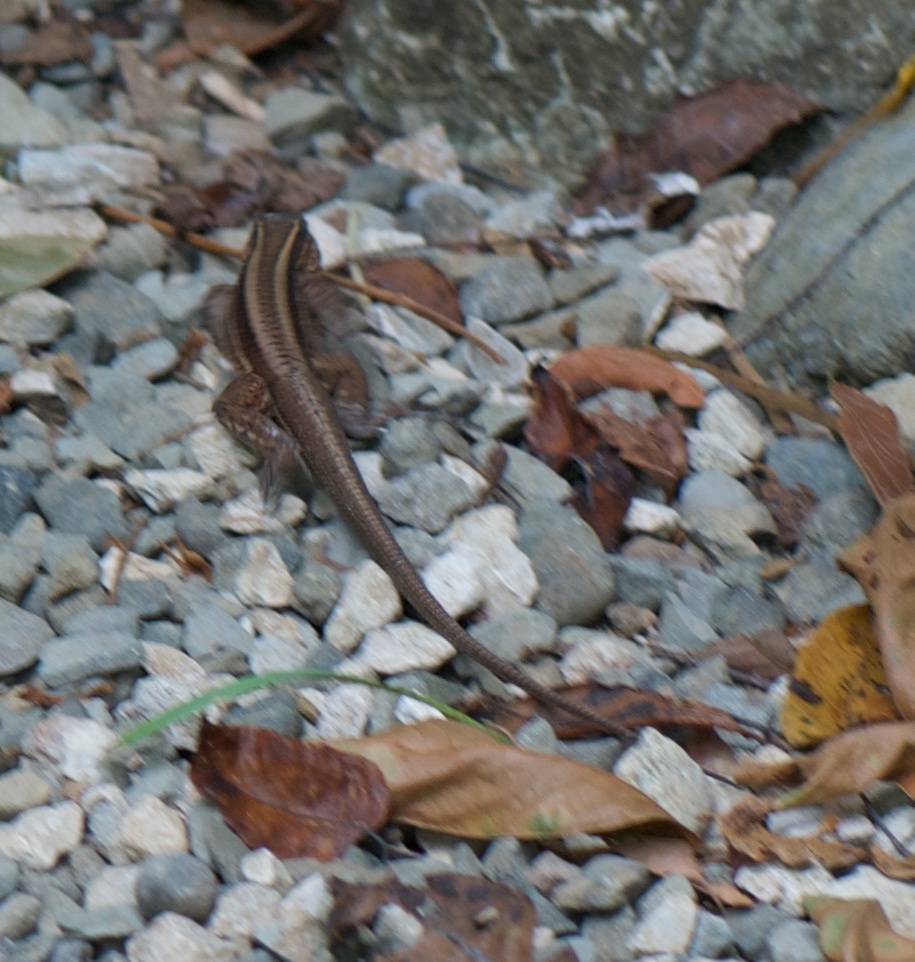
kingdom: Animalia
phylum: Chordata
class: Squamata
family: Teiidae
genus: Holcosus
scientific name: Holcosus quadrilineatus
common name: Four-lined ameiva
